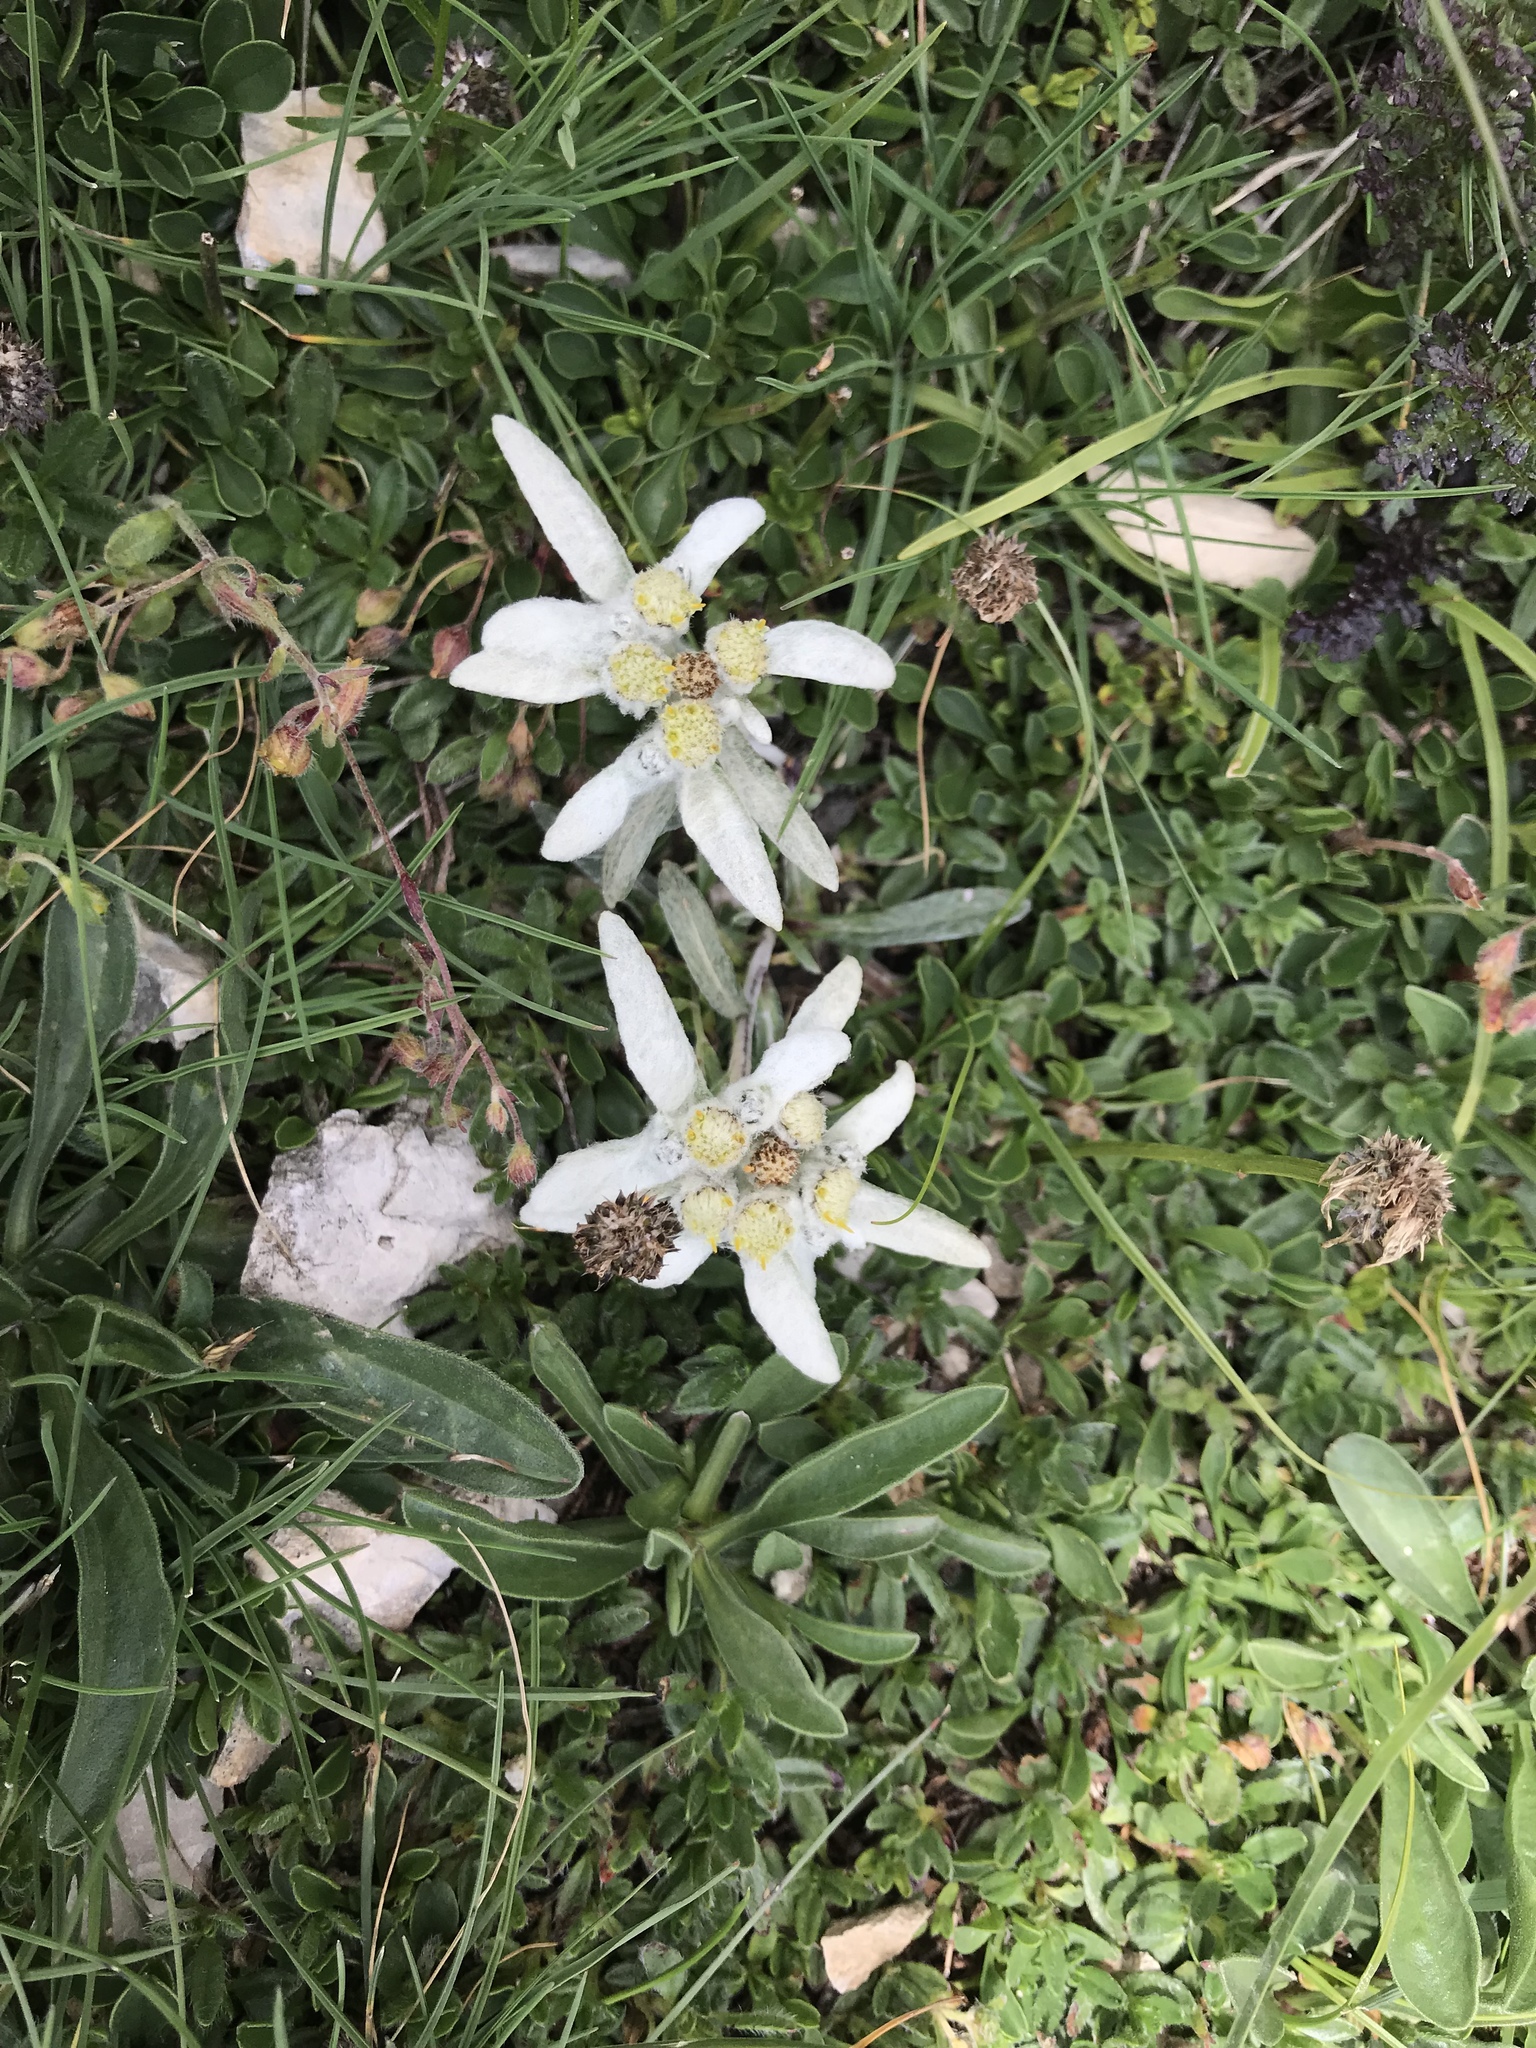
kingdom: Plantae
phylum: Tracheophyta
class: Magnoliopsida
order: Asterales
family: Asteraceae
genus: Leontopodium
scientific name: Leontopodium nivale
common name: Edelweiss
